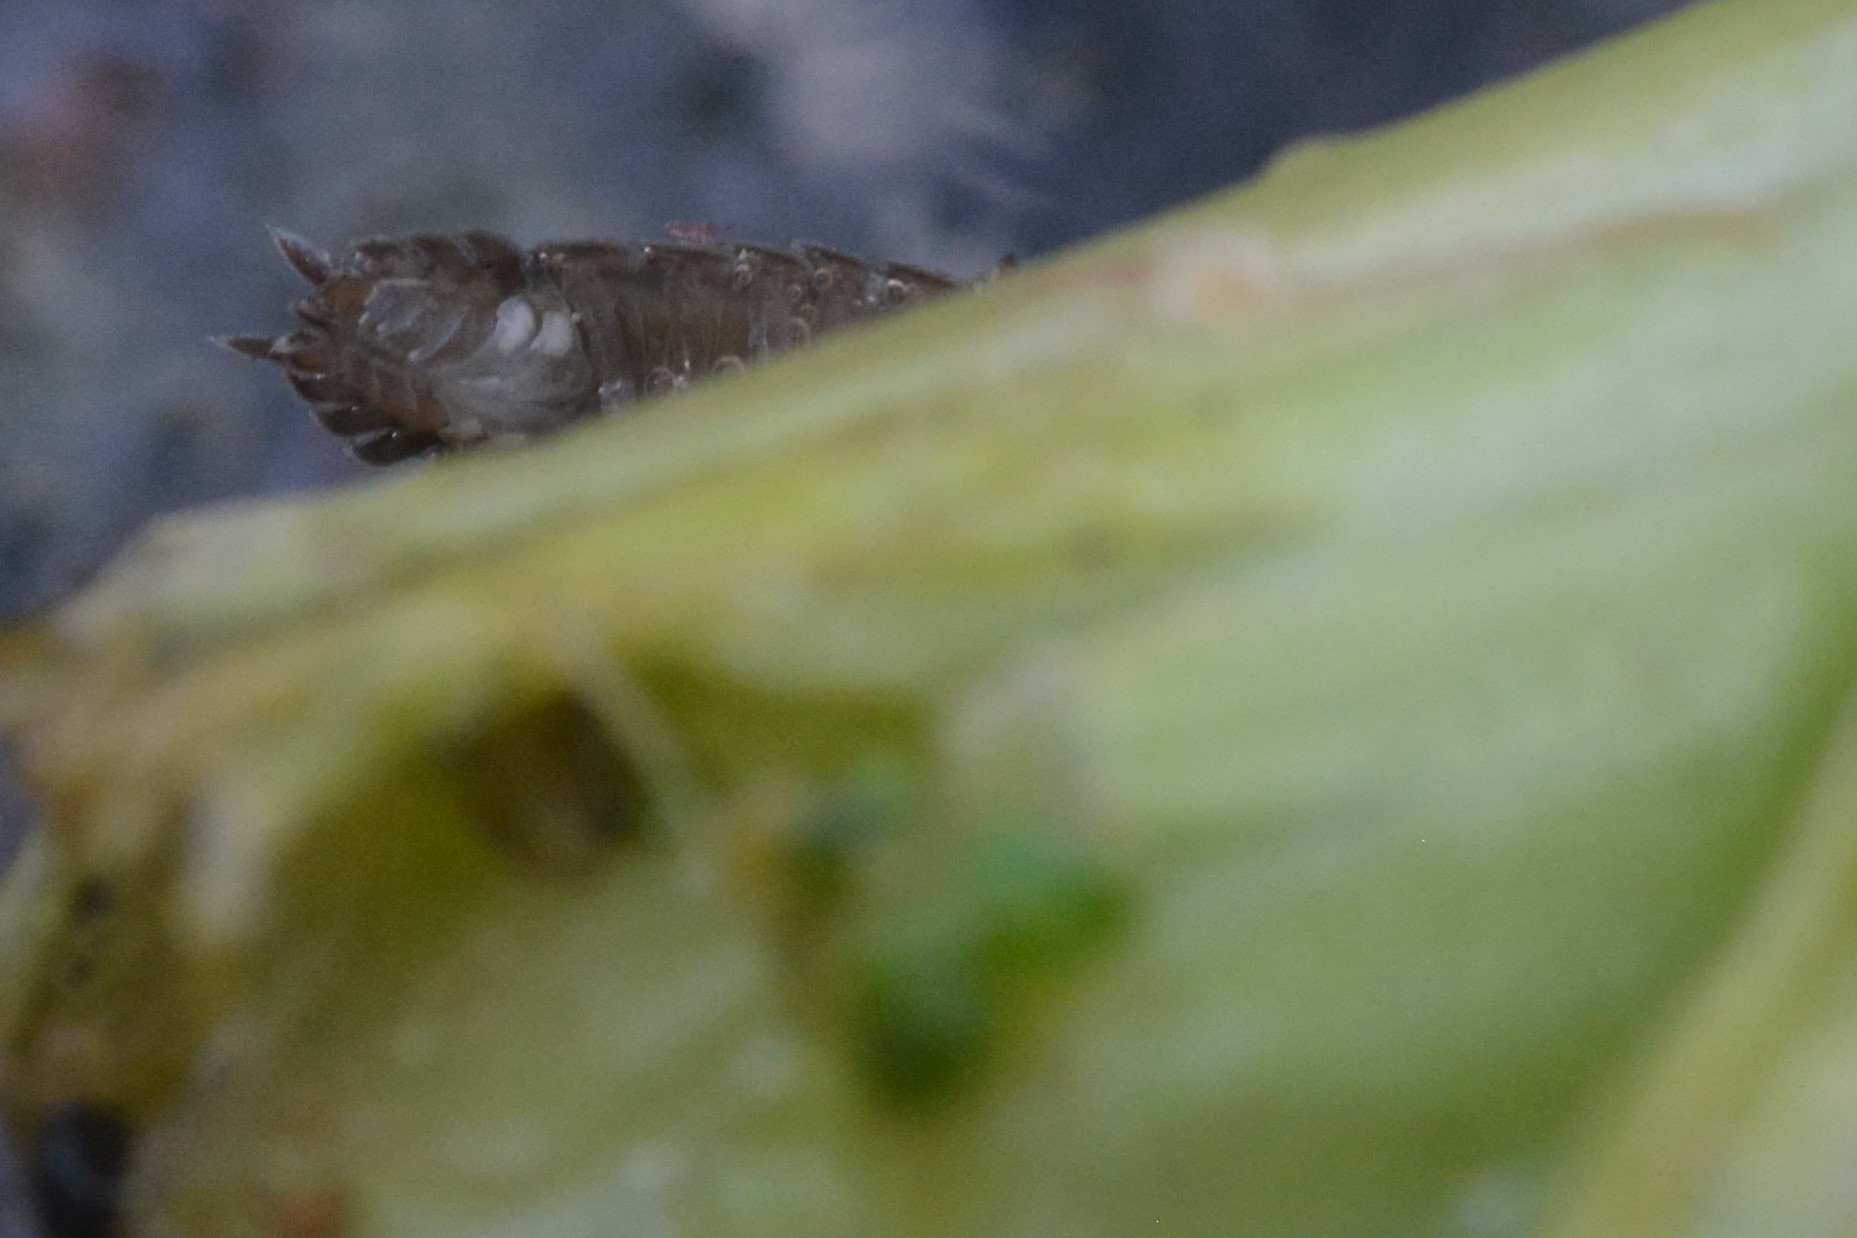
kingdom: Animalia
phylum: Arthropoda
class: Malacostraca
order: Isopoda
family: Porcellionidae
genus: Porcellio
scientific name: Porcellio scaber
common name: Common rough woodlouse
